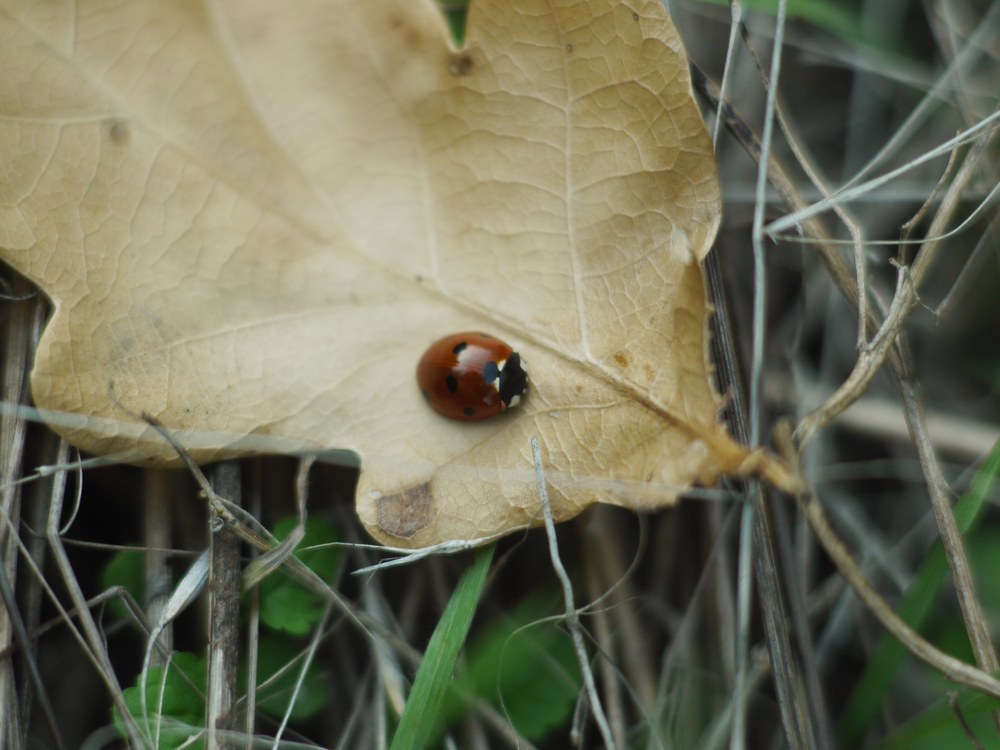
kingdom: Animalia
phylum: Arthropoda
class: Insecta
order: Coleoptera
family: Coccinellidae
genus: Coccinella
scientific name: Coccinella septempunctata
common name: Sevenspotted lady beetle
